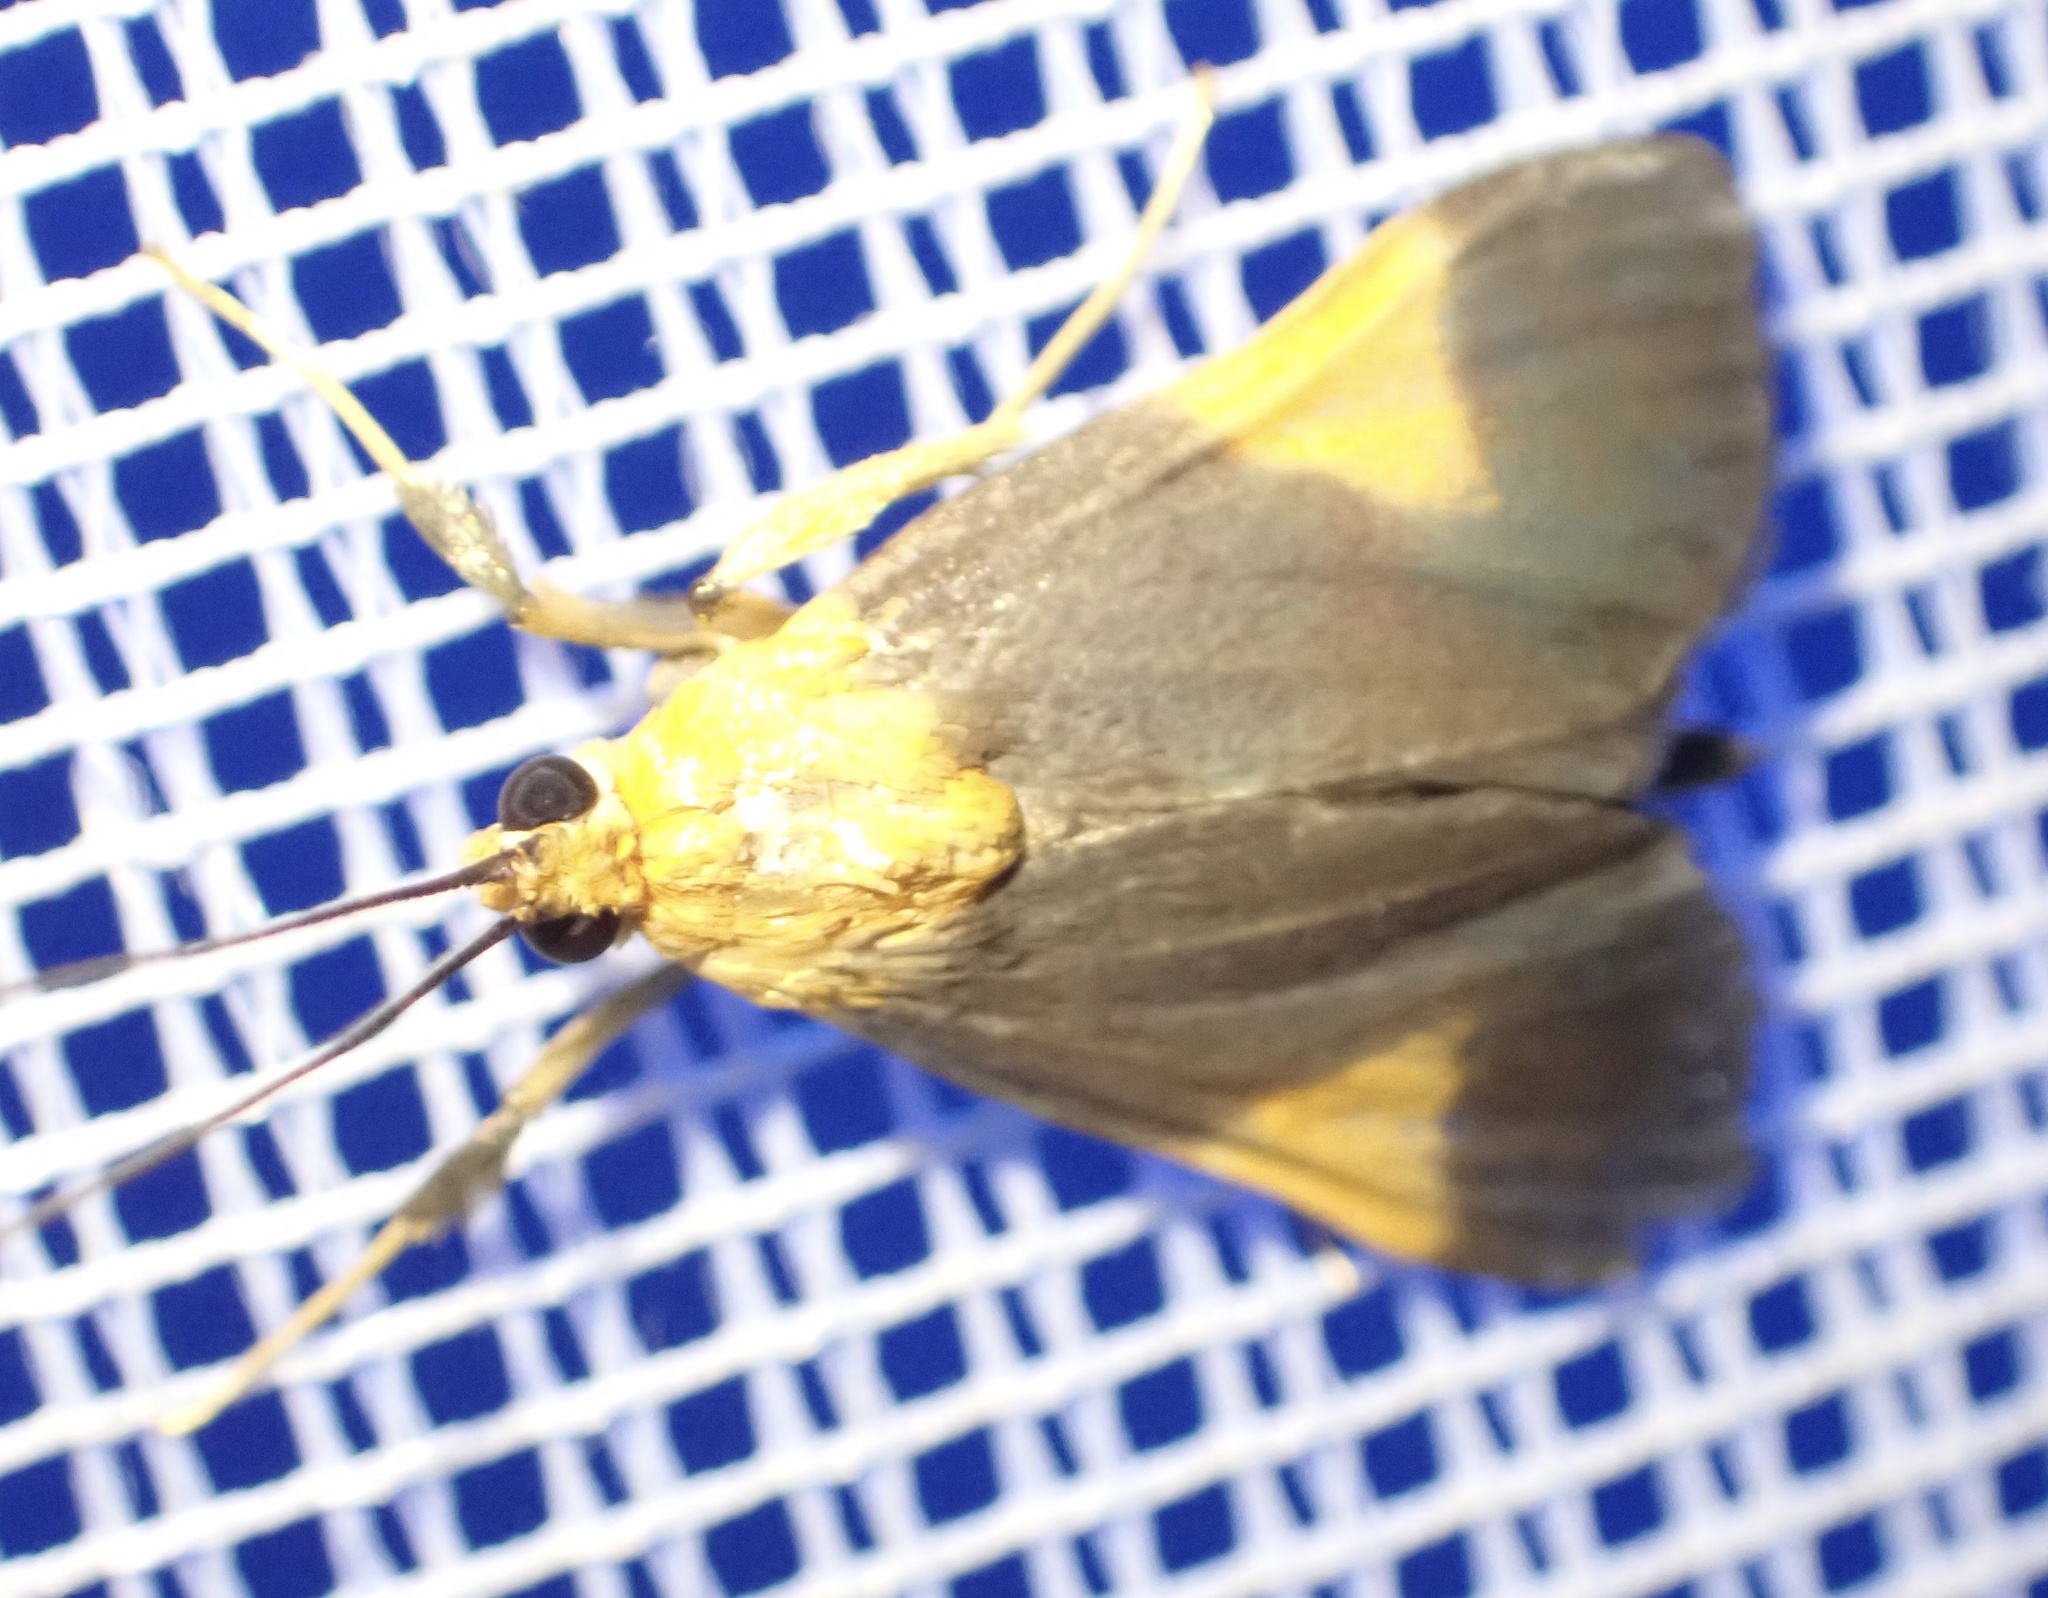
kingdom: Animalia
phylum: Arthropoda
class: Insecta
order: Lepidoptera
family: Crambidae
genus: Ulopeza
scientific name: Ulopeza conigeralis
